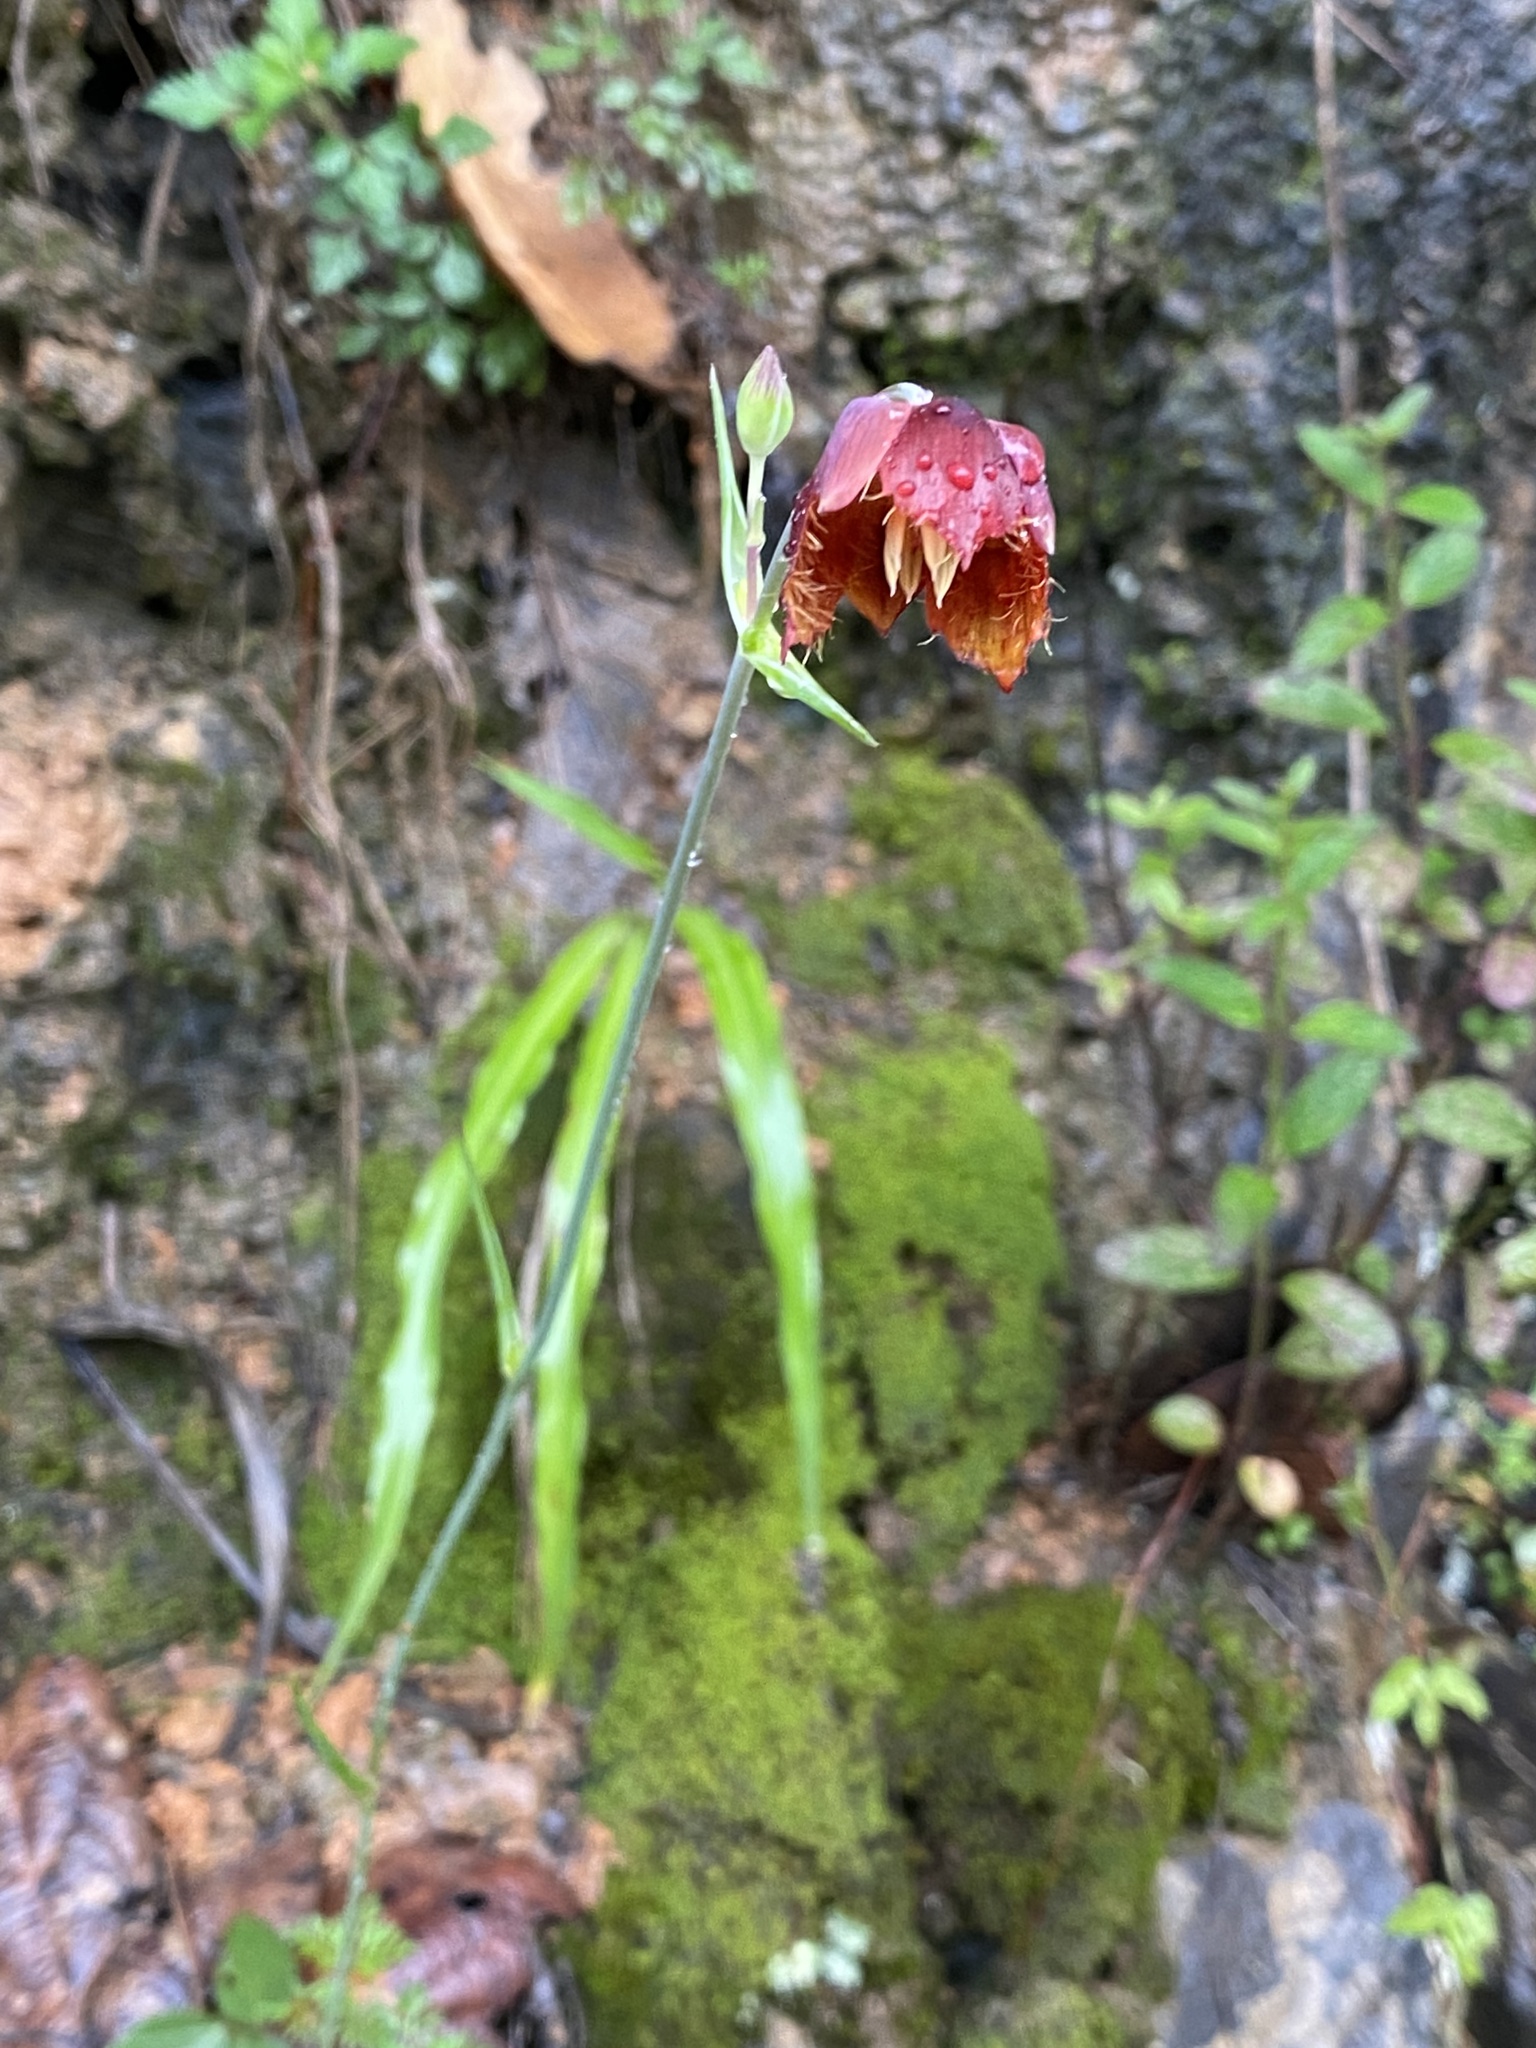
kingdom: Plantae
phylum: Tracheophyta
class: Liliopsida
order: Liliales
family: Liliaceae
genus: Calochortus
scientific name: Calochortus purpureus
